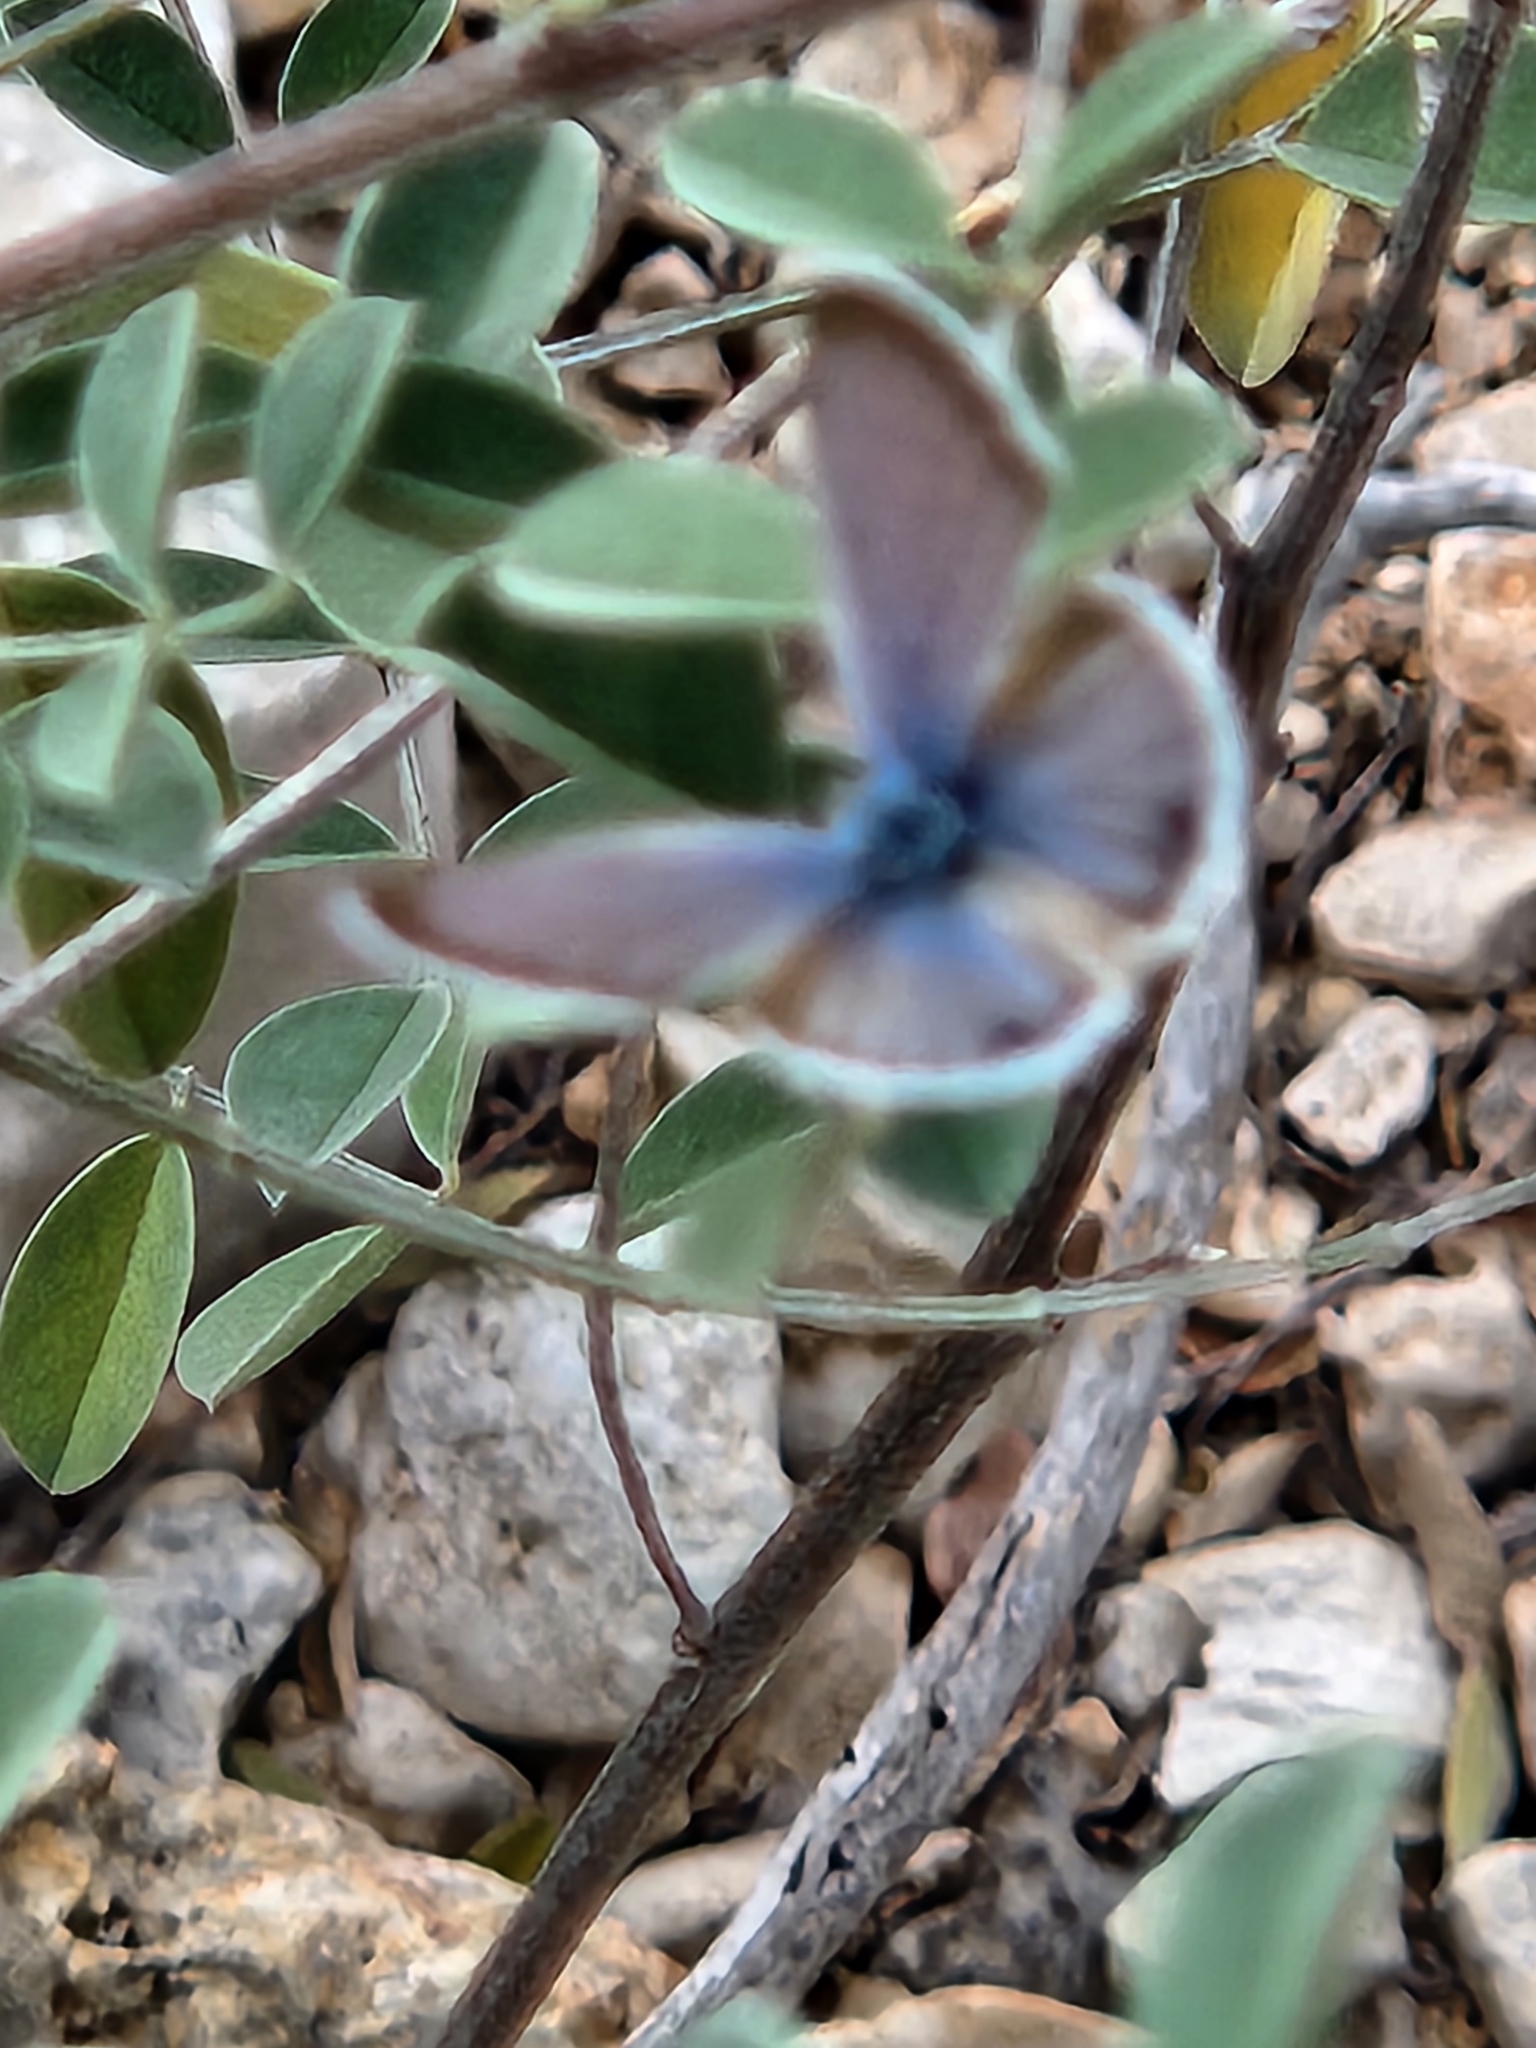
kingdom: Animalia
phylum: Arthropoda
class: Insecta
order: Lepidoptera
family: Lycaenidae
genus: Echinargus
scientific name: Echinargus isola
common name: Reakirt's blue
